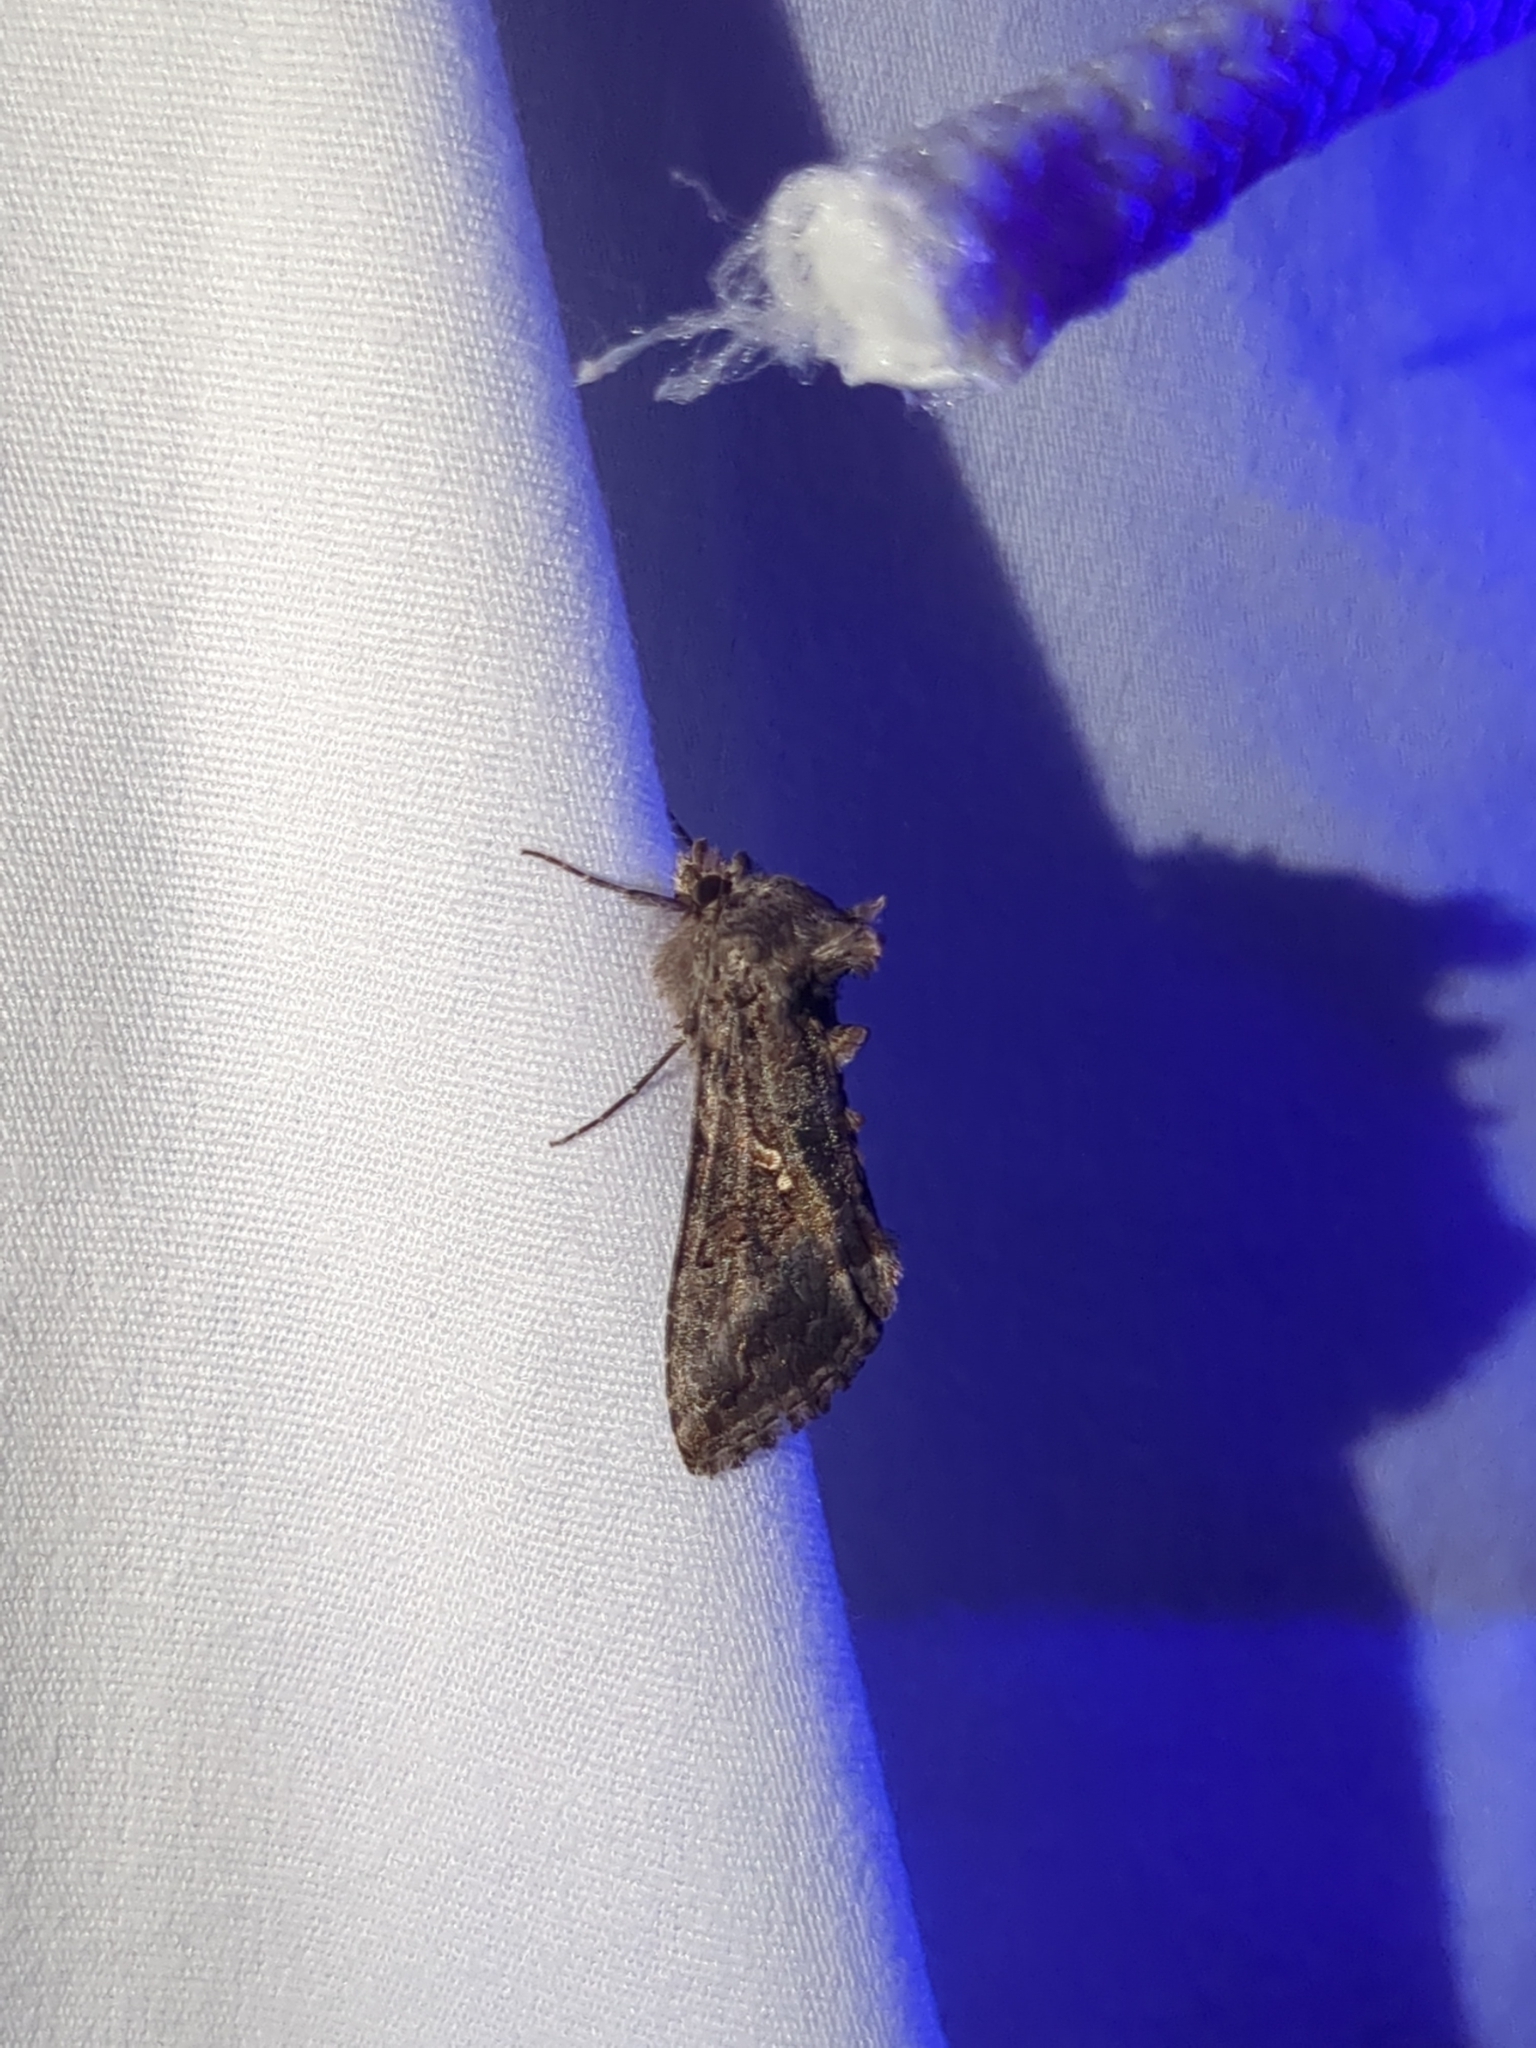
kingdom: Animalia
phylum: Arthropoda
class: Insecta
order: Lepidoptera
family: Noctuidae
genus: Rachiplusia
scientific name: Rachiplusia ou
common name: Gray looper moth
